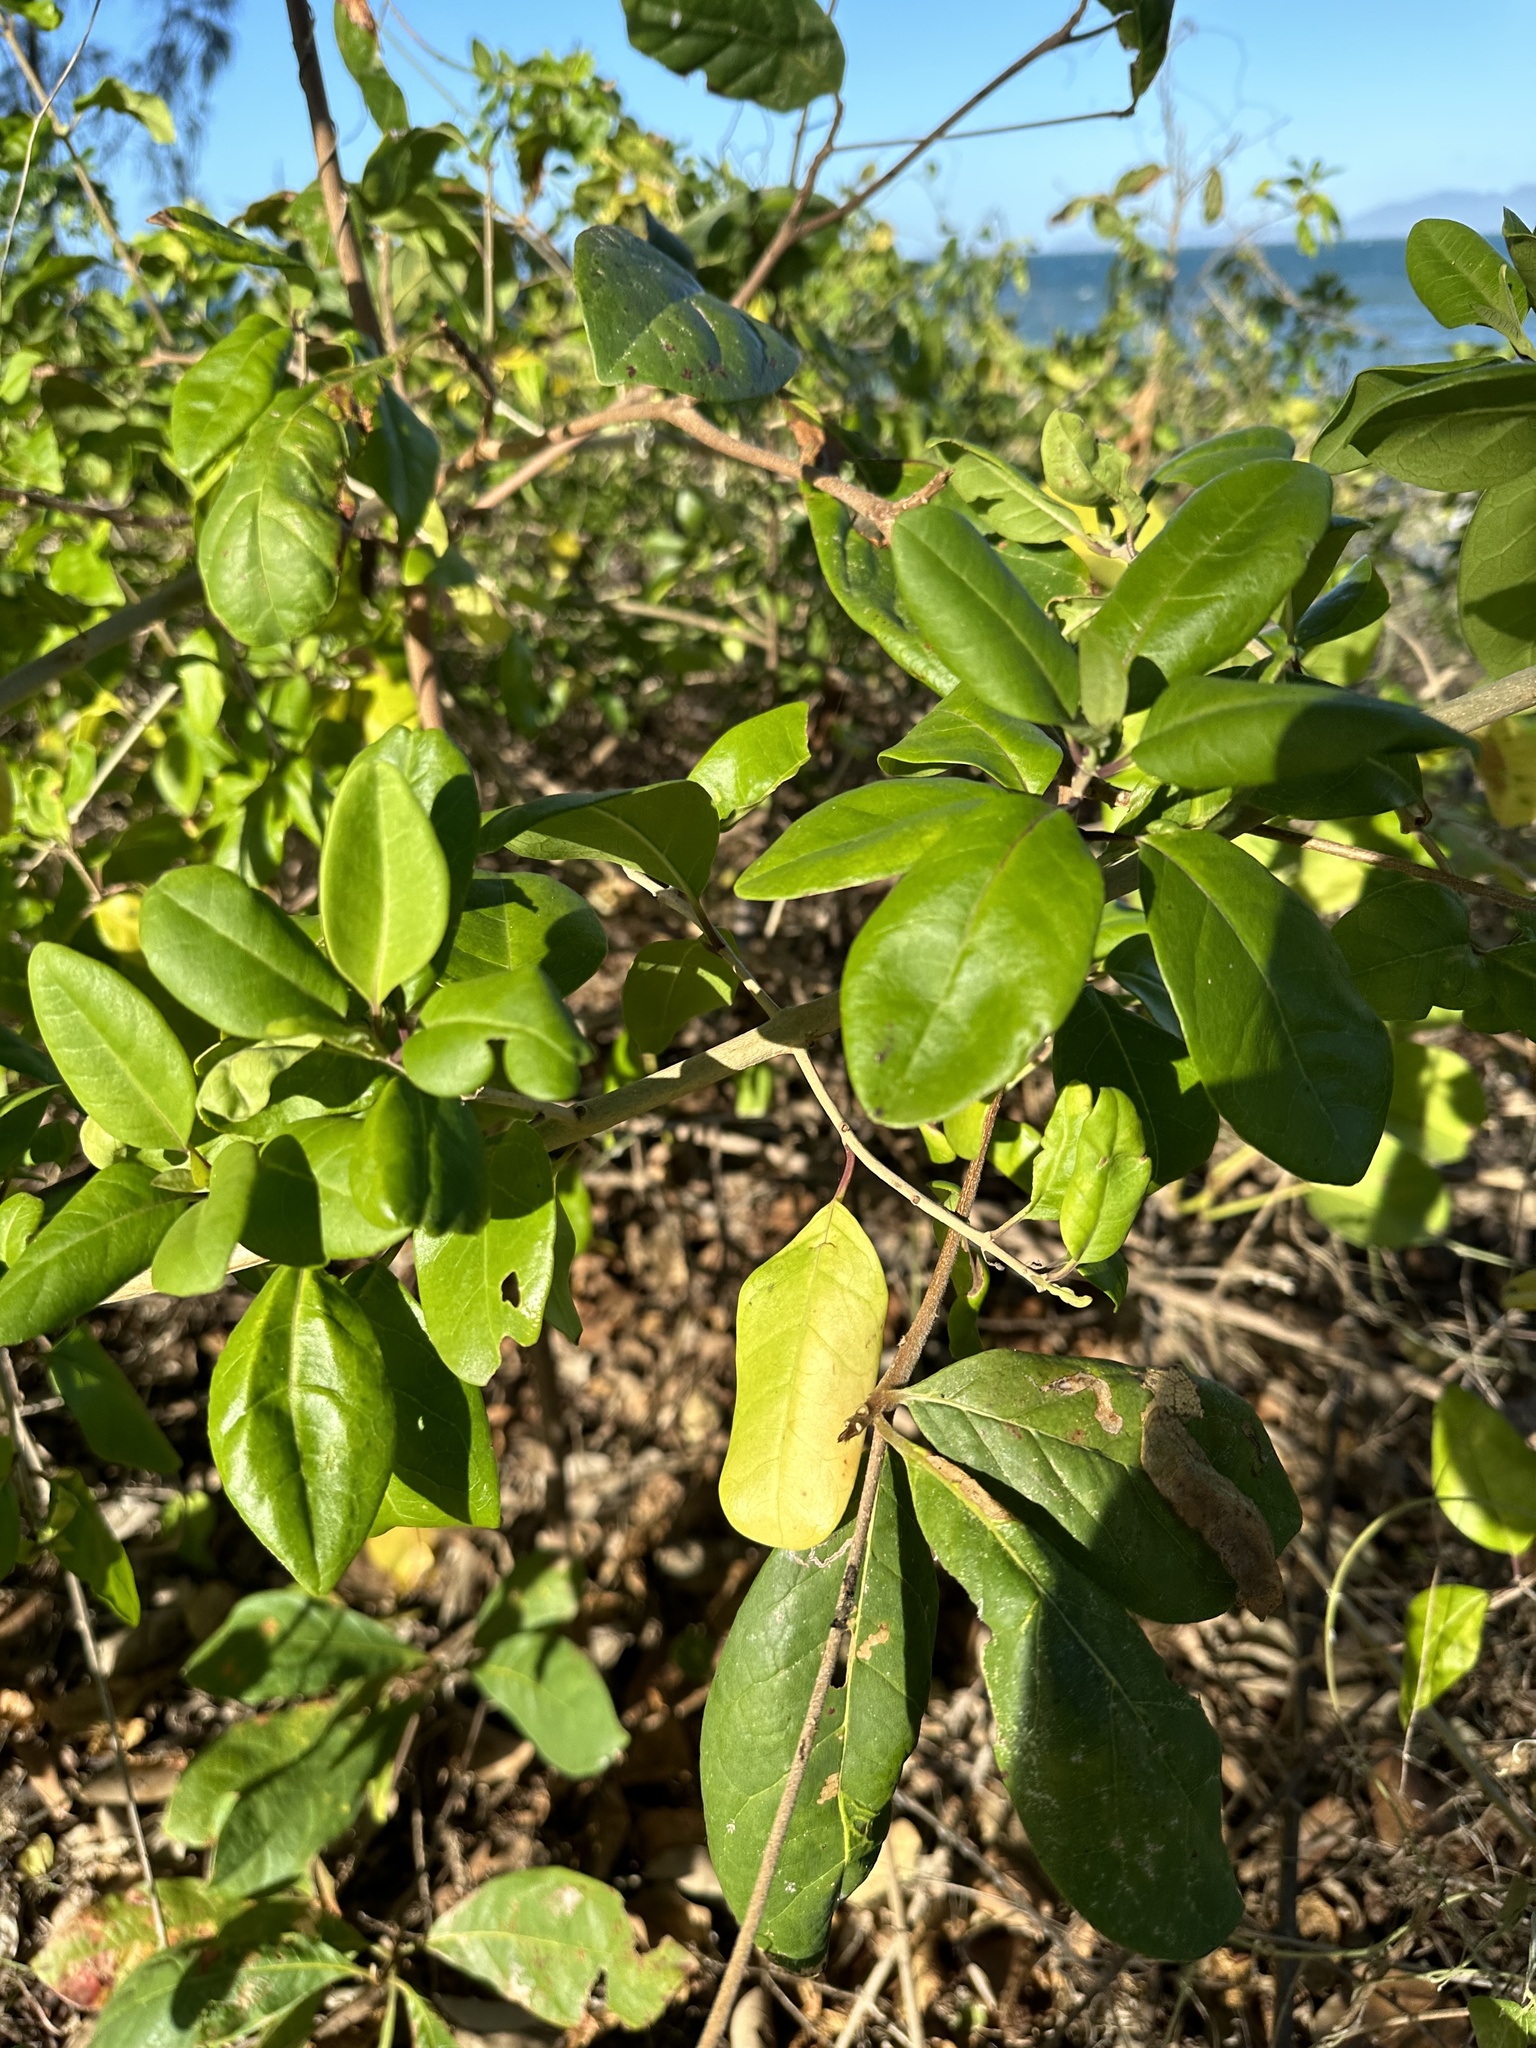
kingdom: Plantae
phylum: Tracheophyta
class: Magnoliopsida
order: Lamiales
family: Lamiaceae
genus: Volkameria
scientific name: Volkameria inermis
